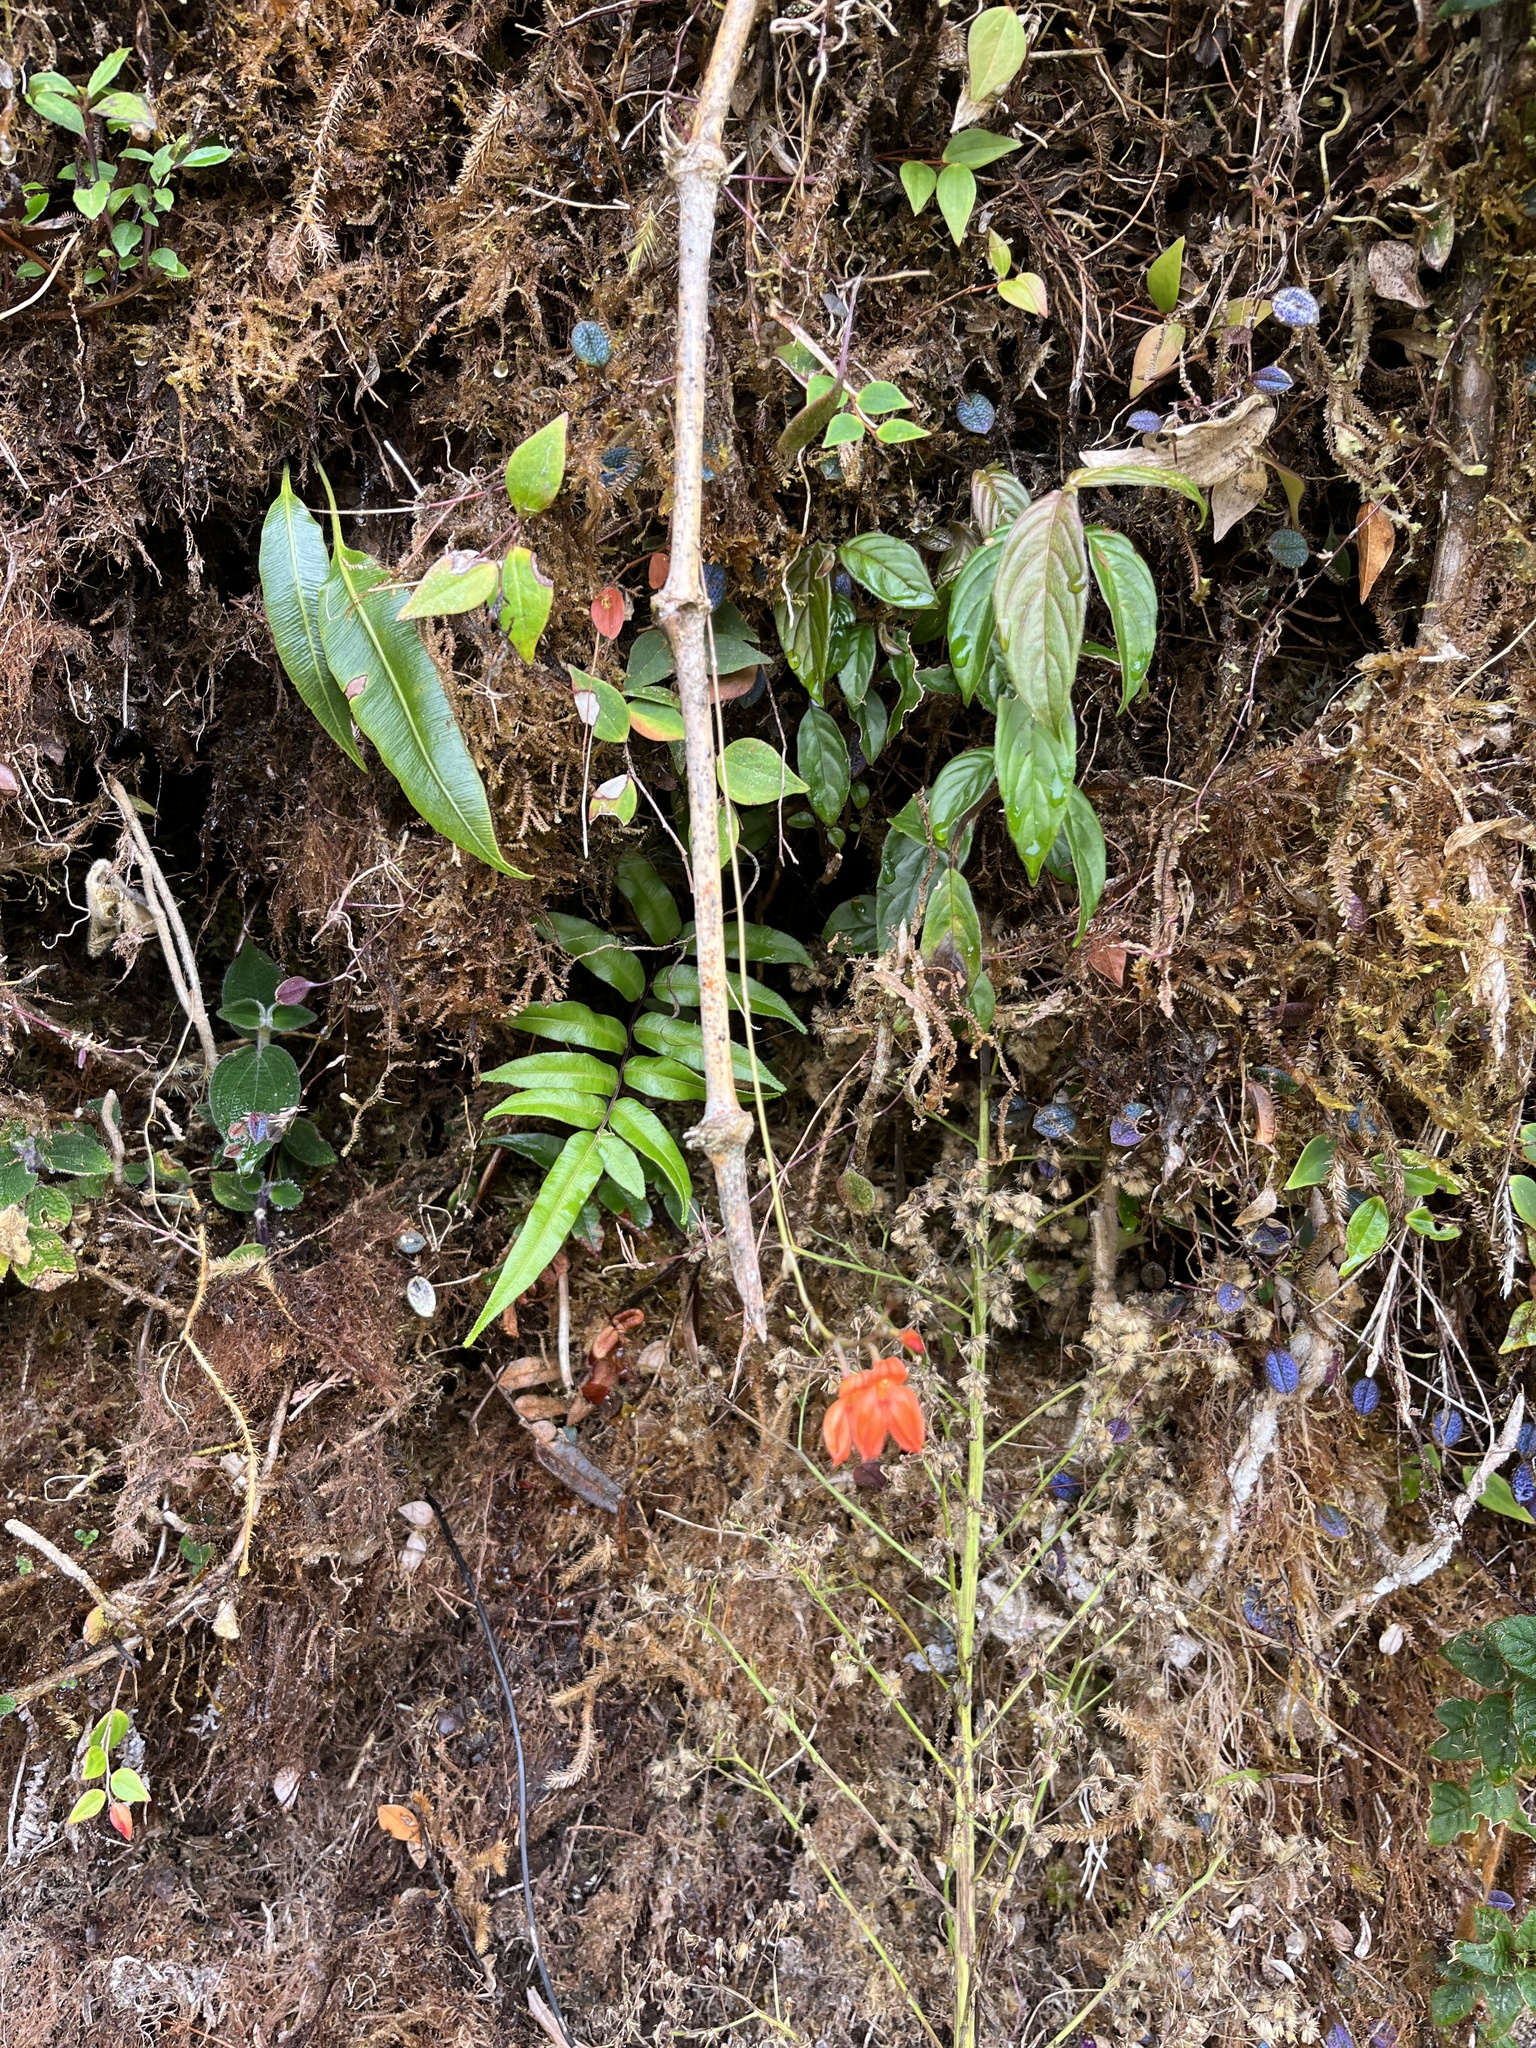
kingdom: Plantae
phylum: Tracheophyta
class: Liliopsida
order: Asparagales
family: Orchidaceae
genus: Porroglossum
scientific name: Porroglossum eduardi
